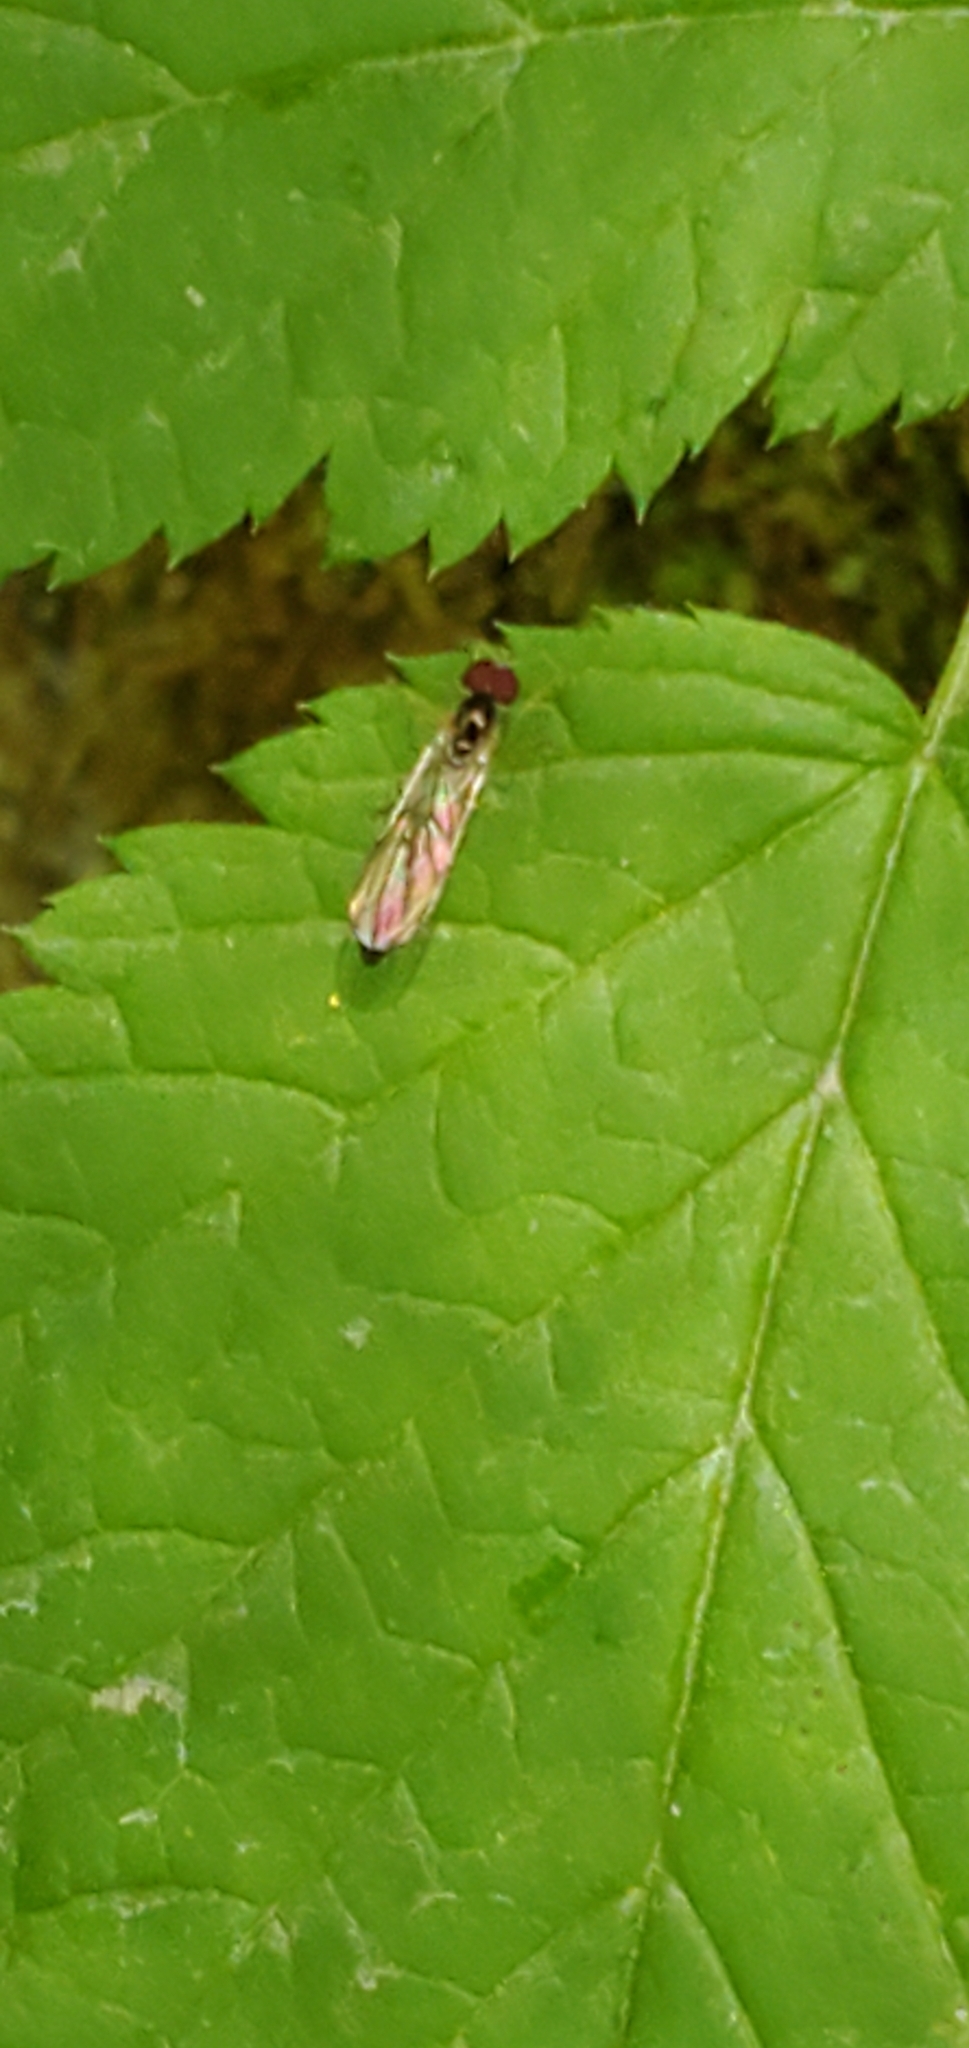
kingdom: Animalia
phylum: Arthropoda
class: Insecta
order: Diptera
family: Syrphidae
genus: Baccha
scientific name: Baccha cognata
